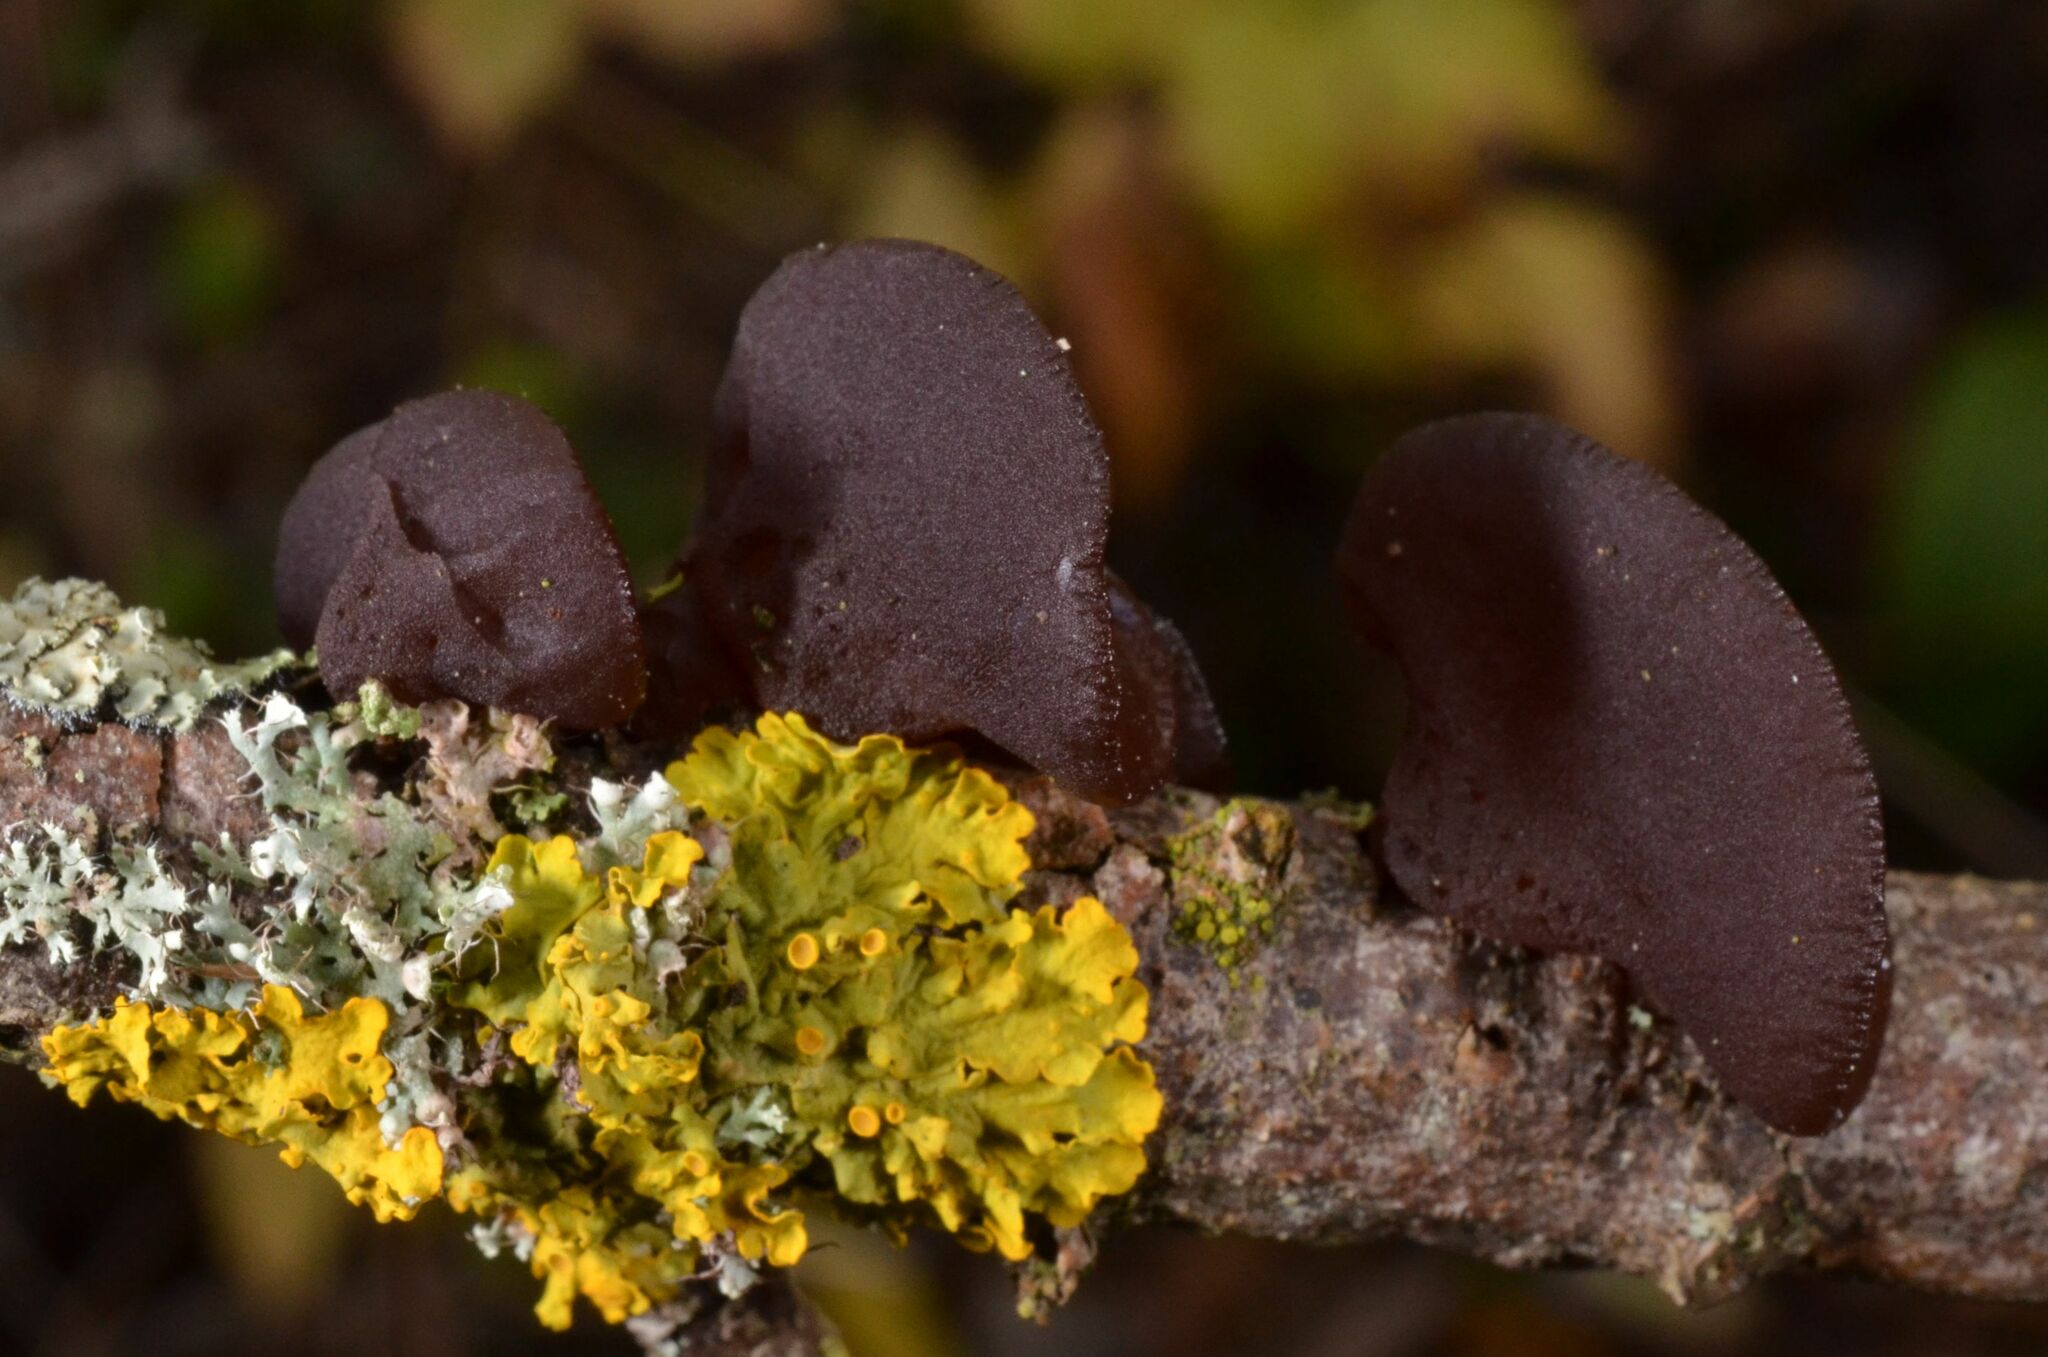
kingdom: Fungi
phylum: Basidiomycota
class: Agaricomycetes
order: Auriculariales
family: Auriculariaceae
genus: Exidia
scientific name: Exidia recisa
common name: Amber jelly
